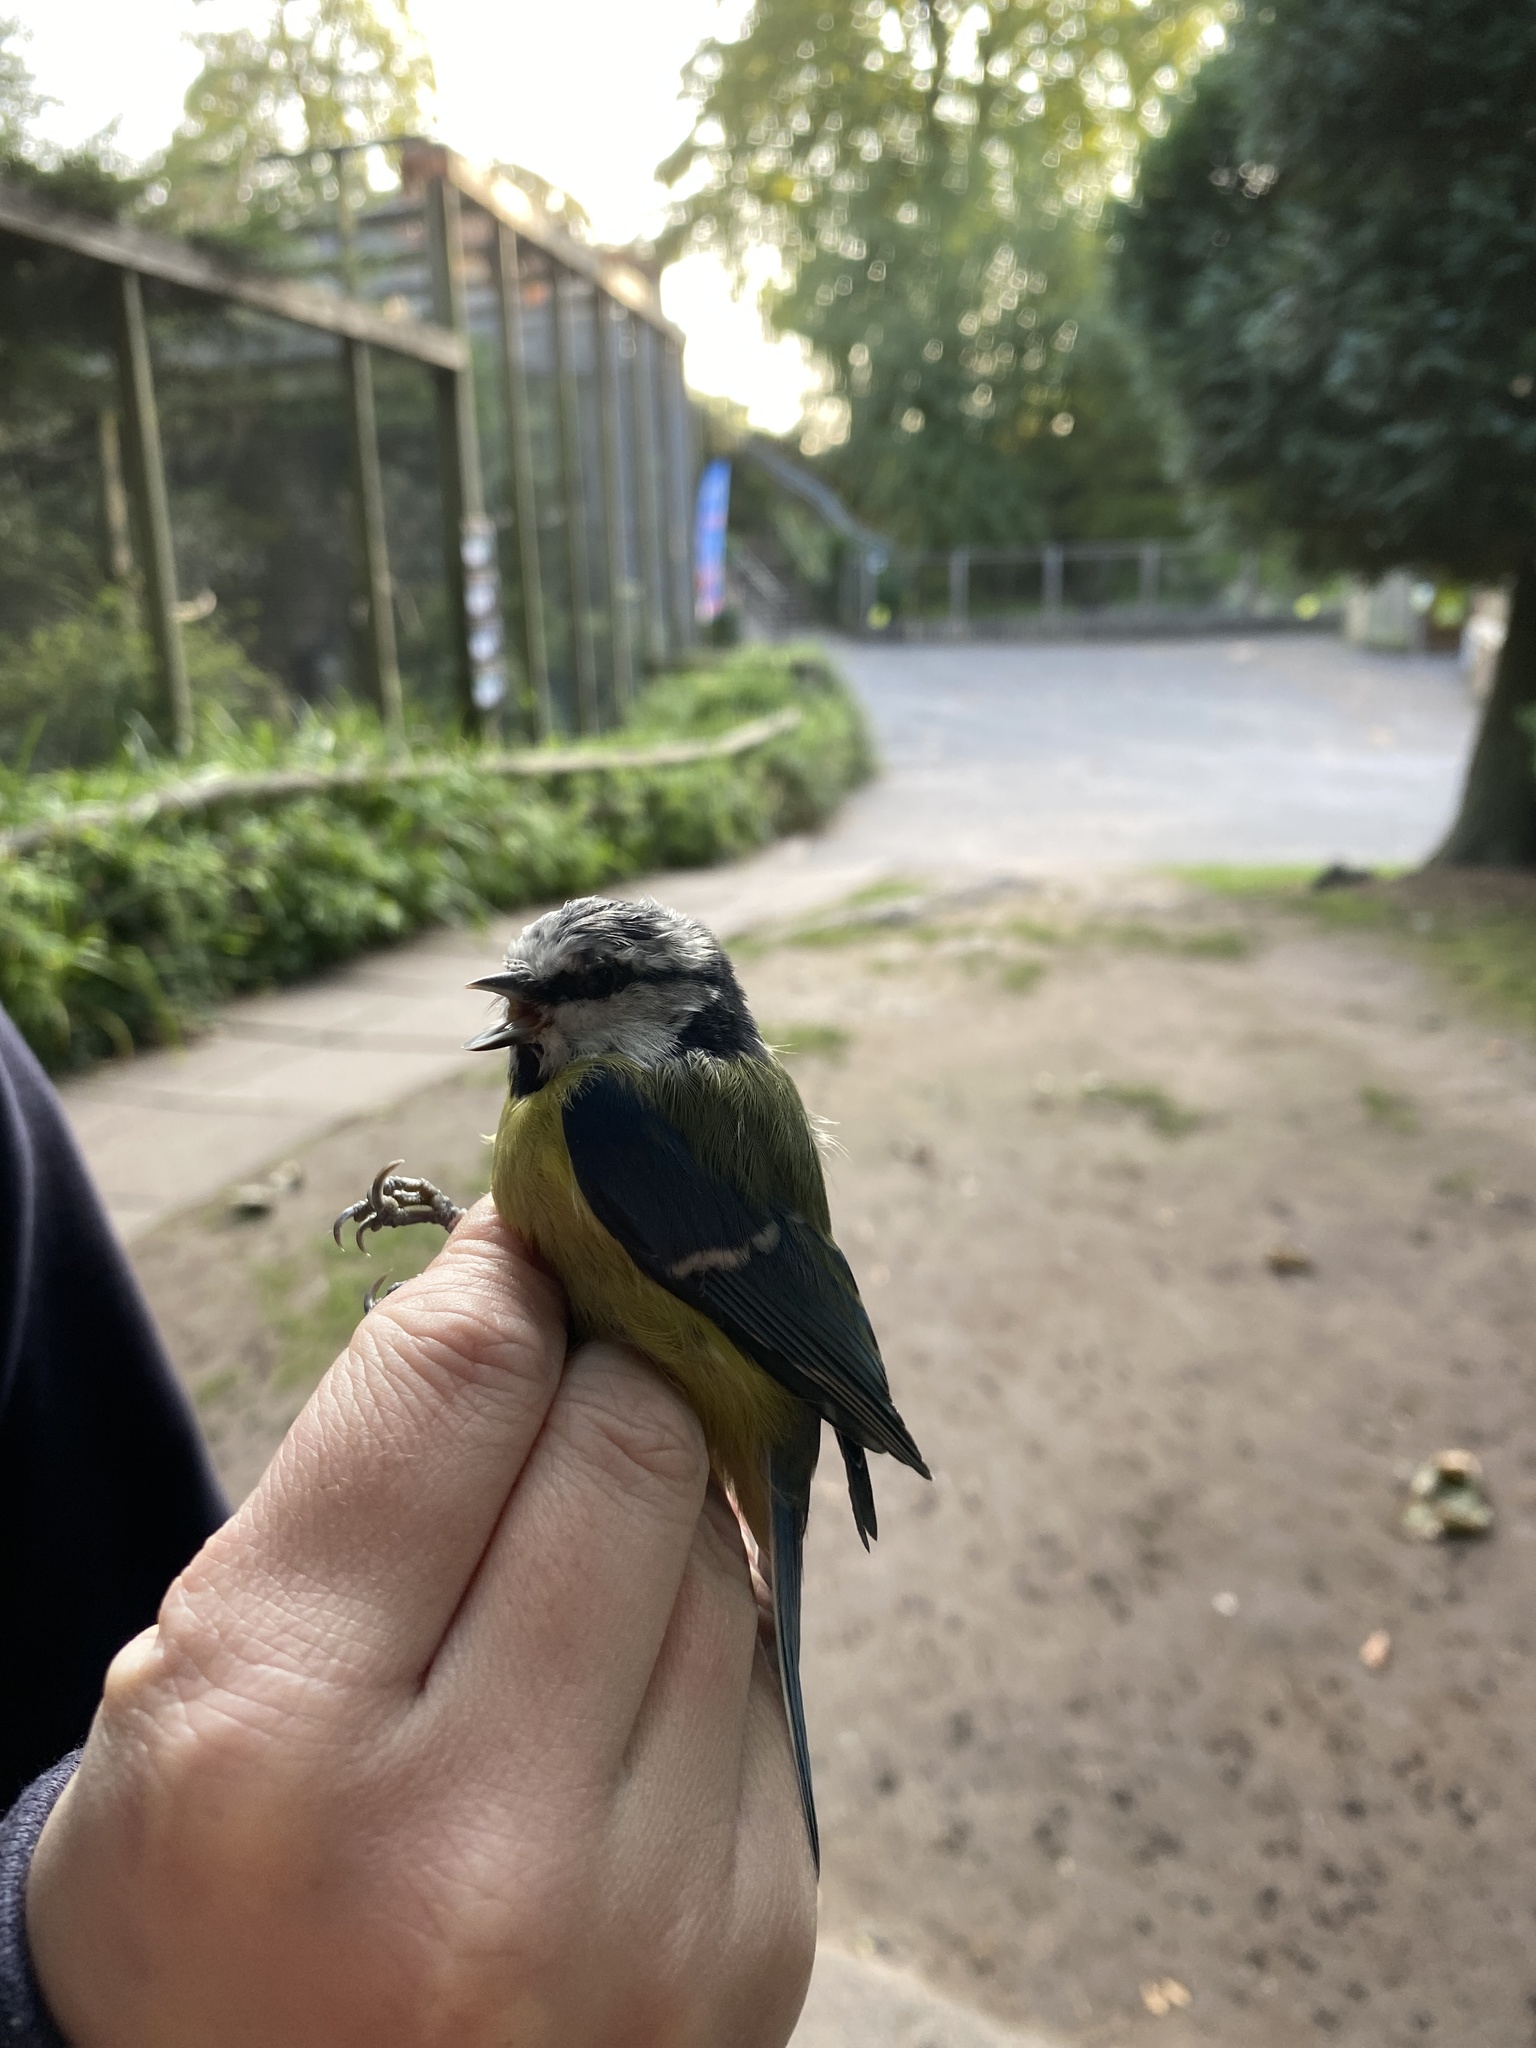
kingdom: Animalia
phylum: Chordata
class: Aves
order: Passeriformes
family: Paridae
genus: Cyanistes
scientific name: Cyanistes caeruleus
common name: Eurasian blue tit
